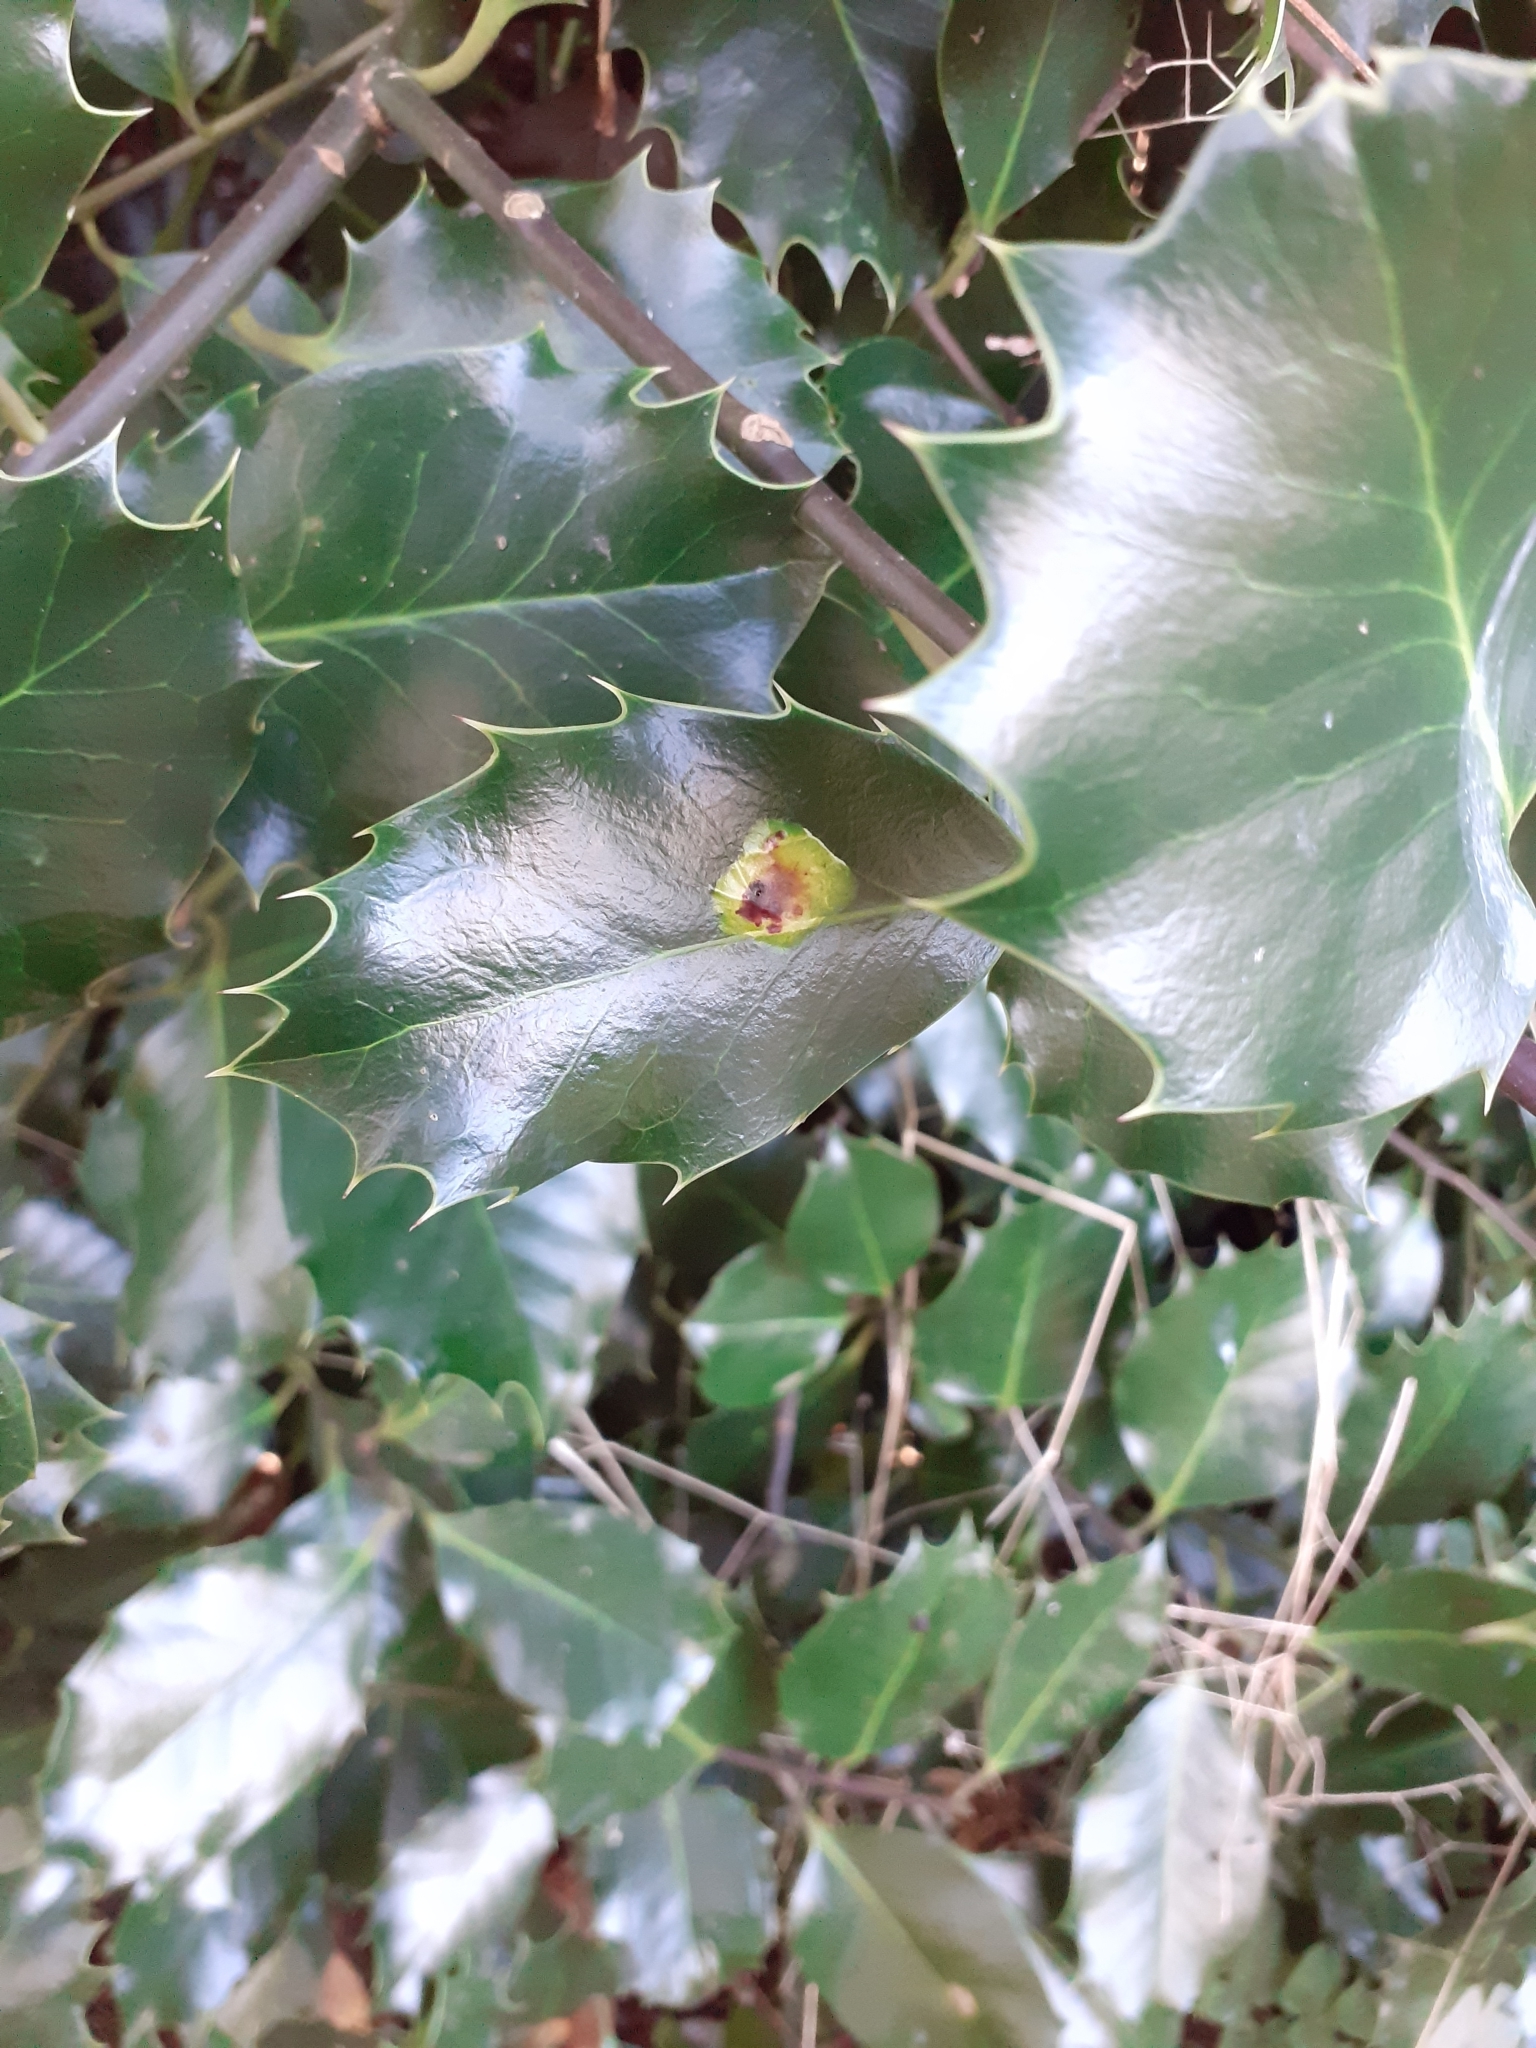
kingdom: Animalia
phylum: Arthropoda
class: Insecta
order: Diptera
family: Agromyzidae
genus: Phytomyza
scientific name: Phytomyza ilicis
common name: Holly leafminer
